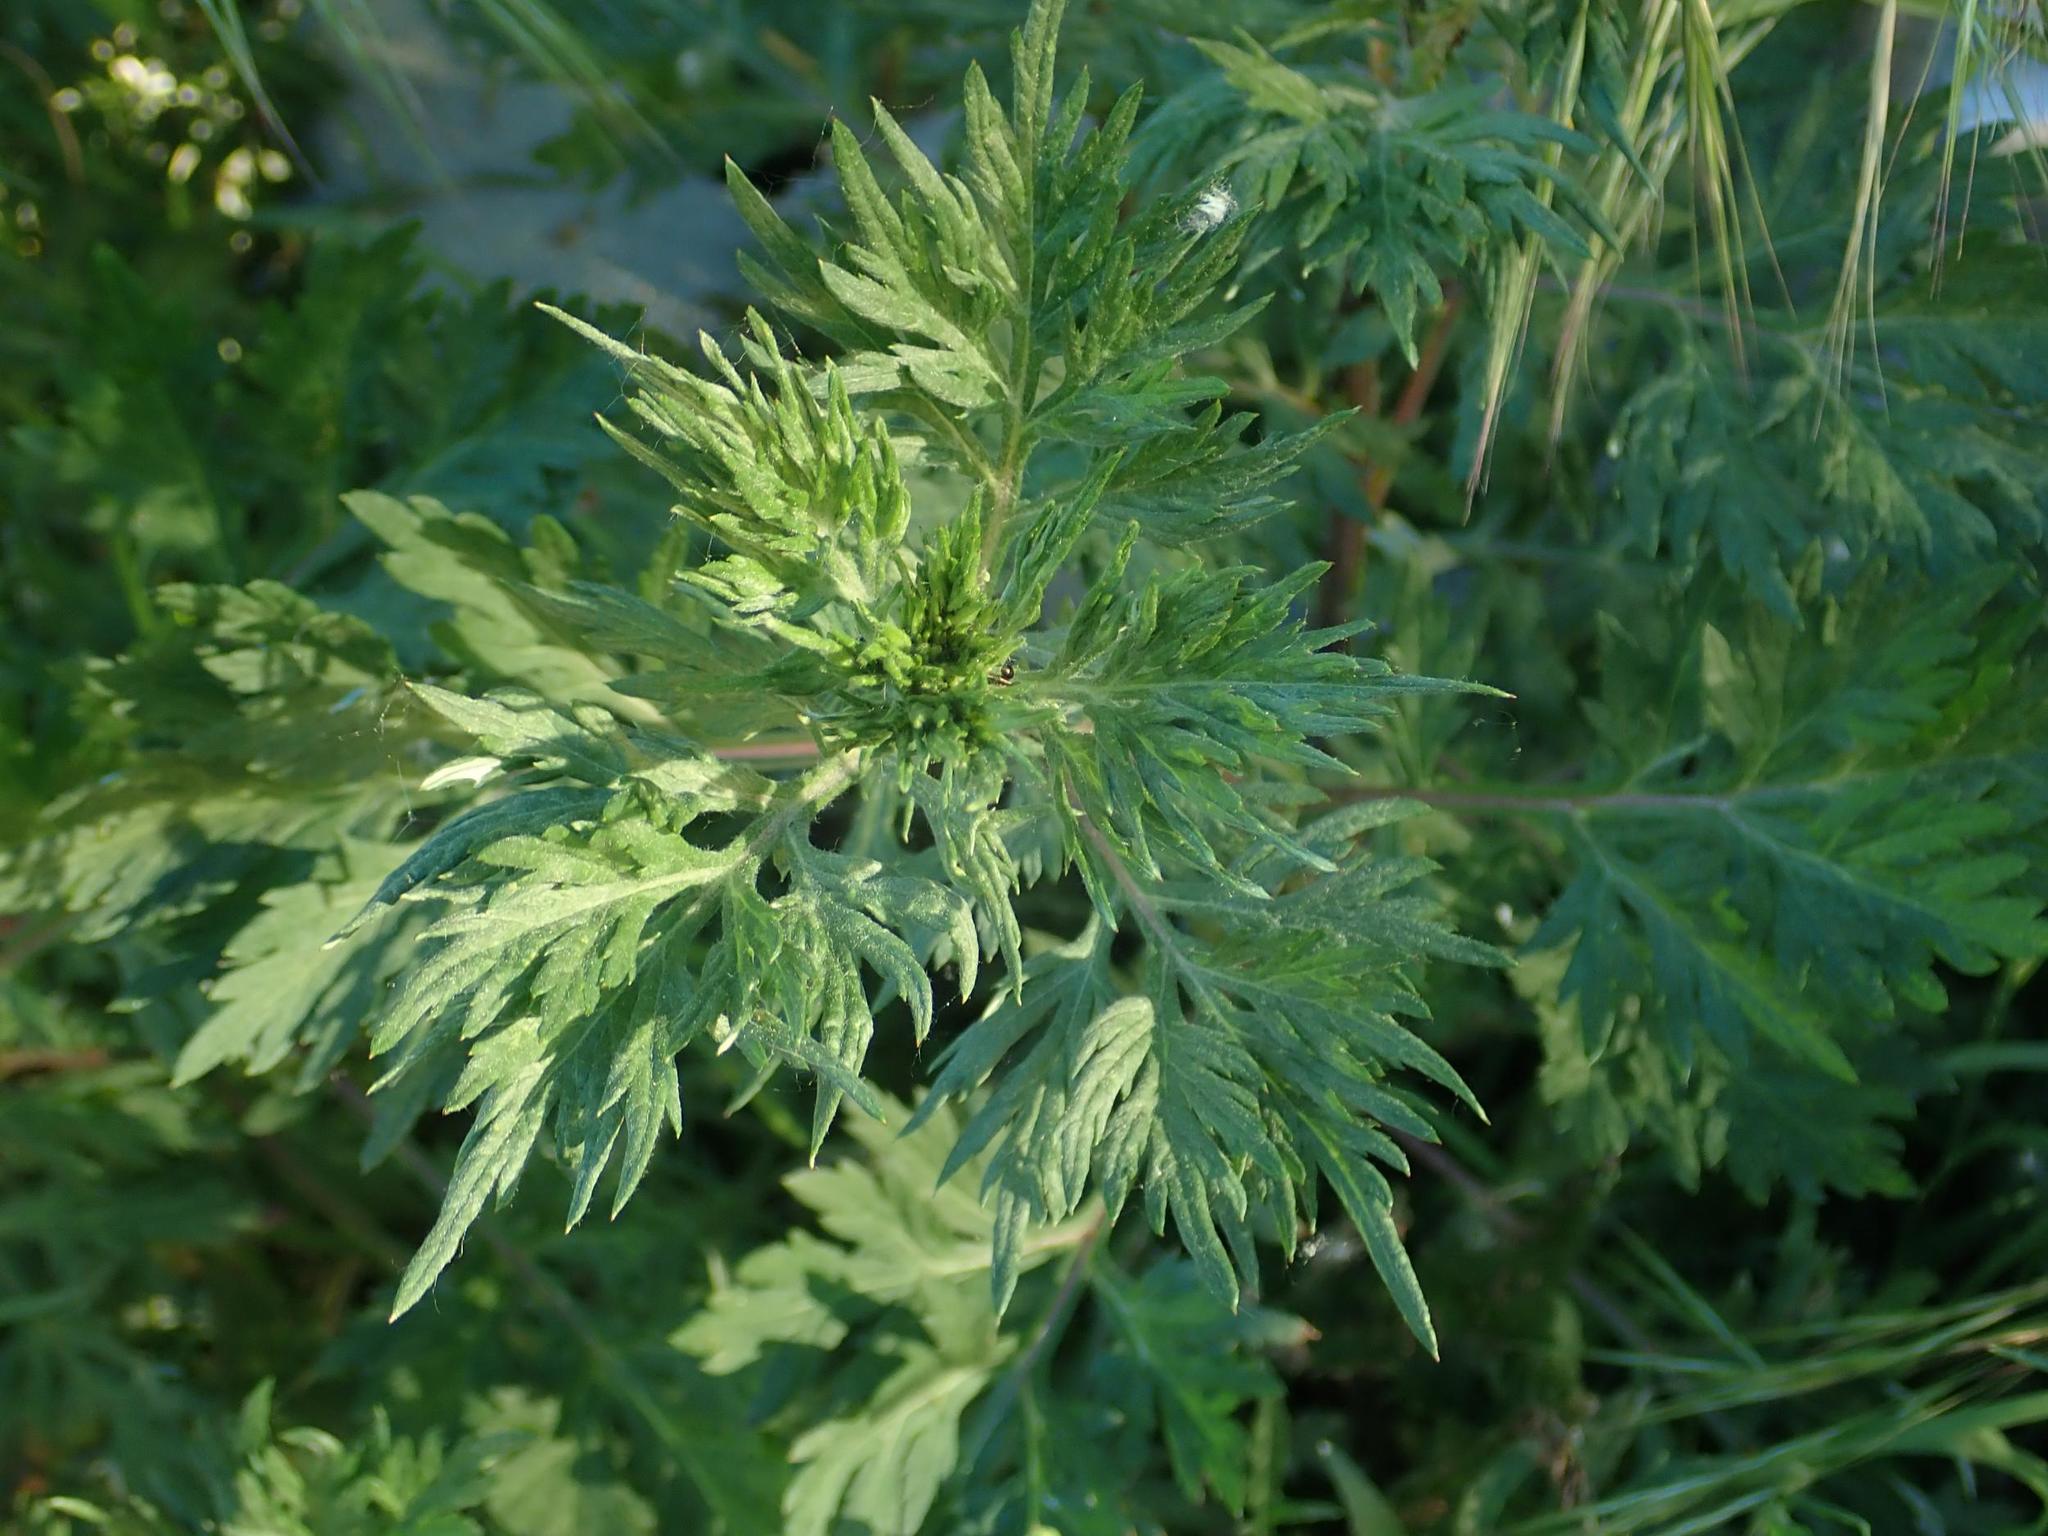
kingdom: Plantae
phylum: Tracheophyta
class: Magnoliopsida
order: Asterales
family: Asteraceae
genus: Artemisia
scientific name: Artemisia vulgaris
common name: Mugwort
